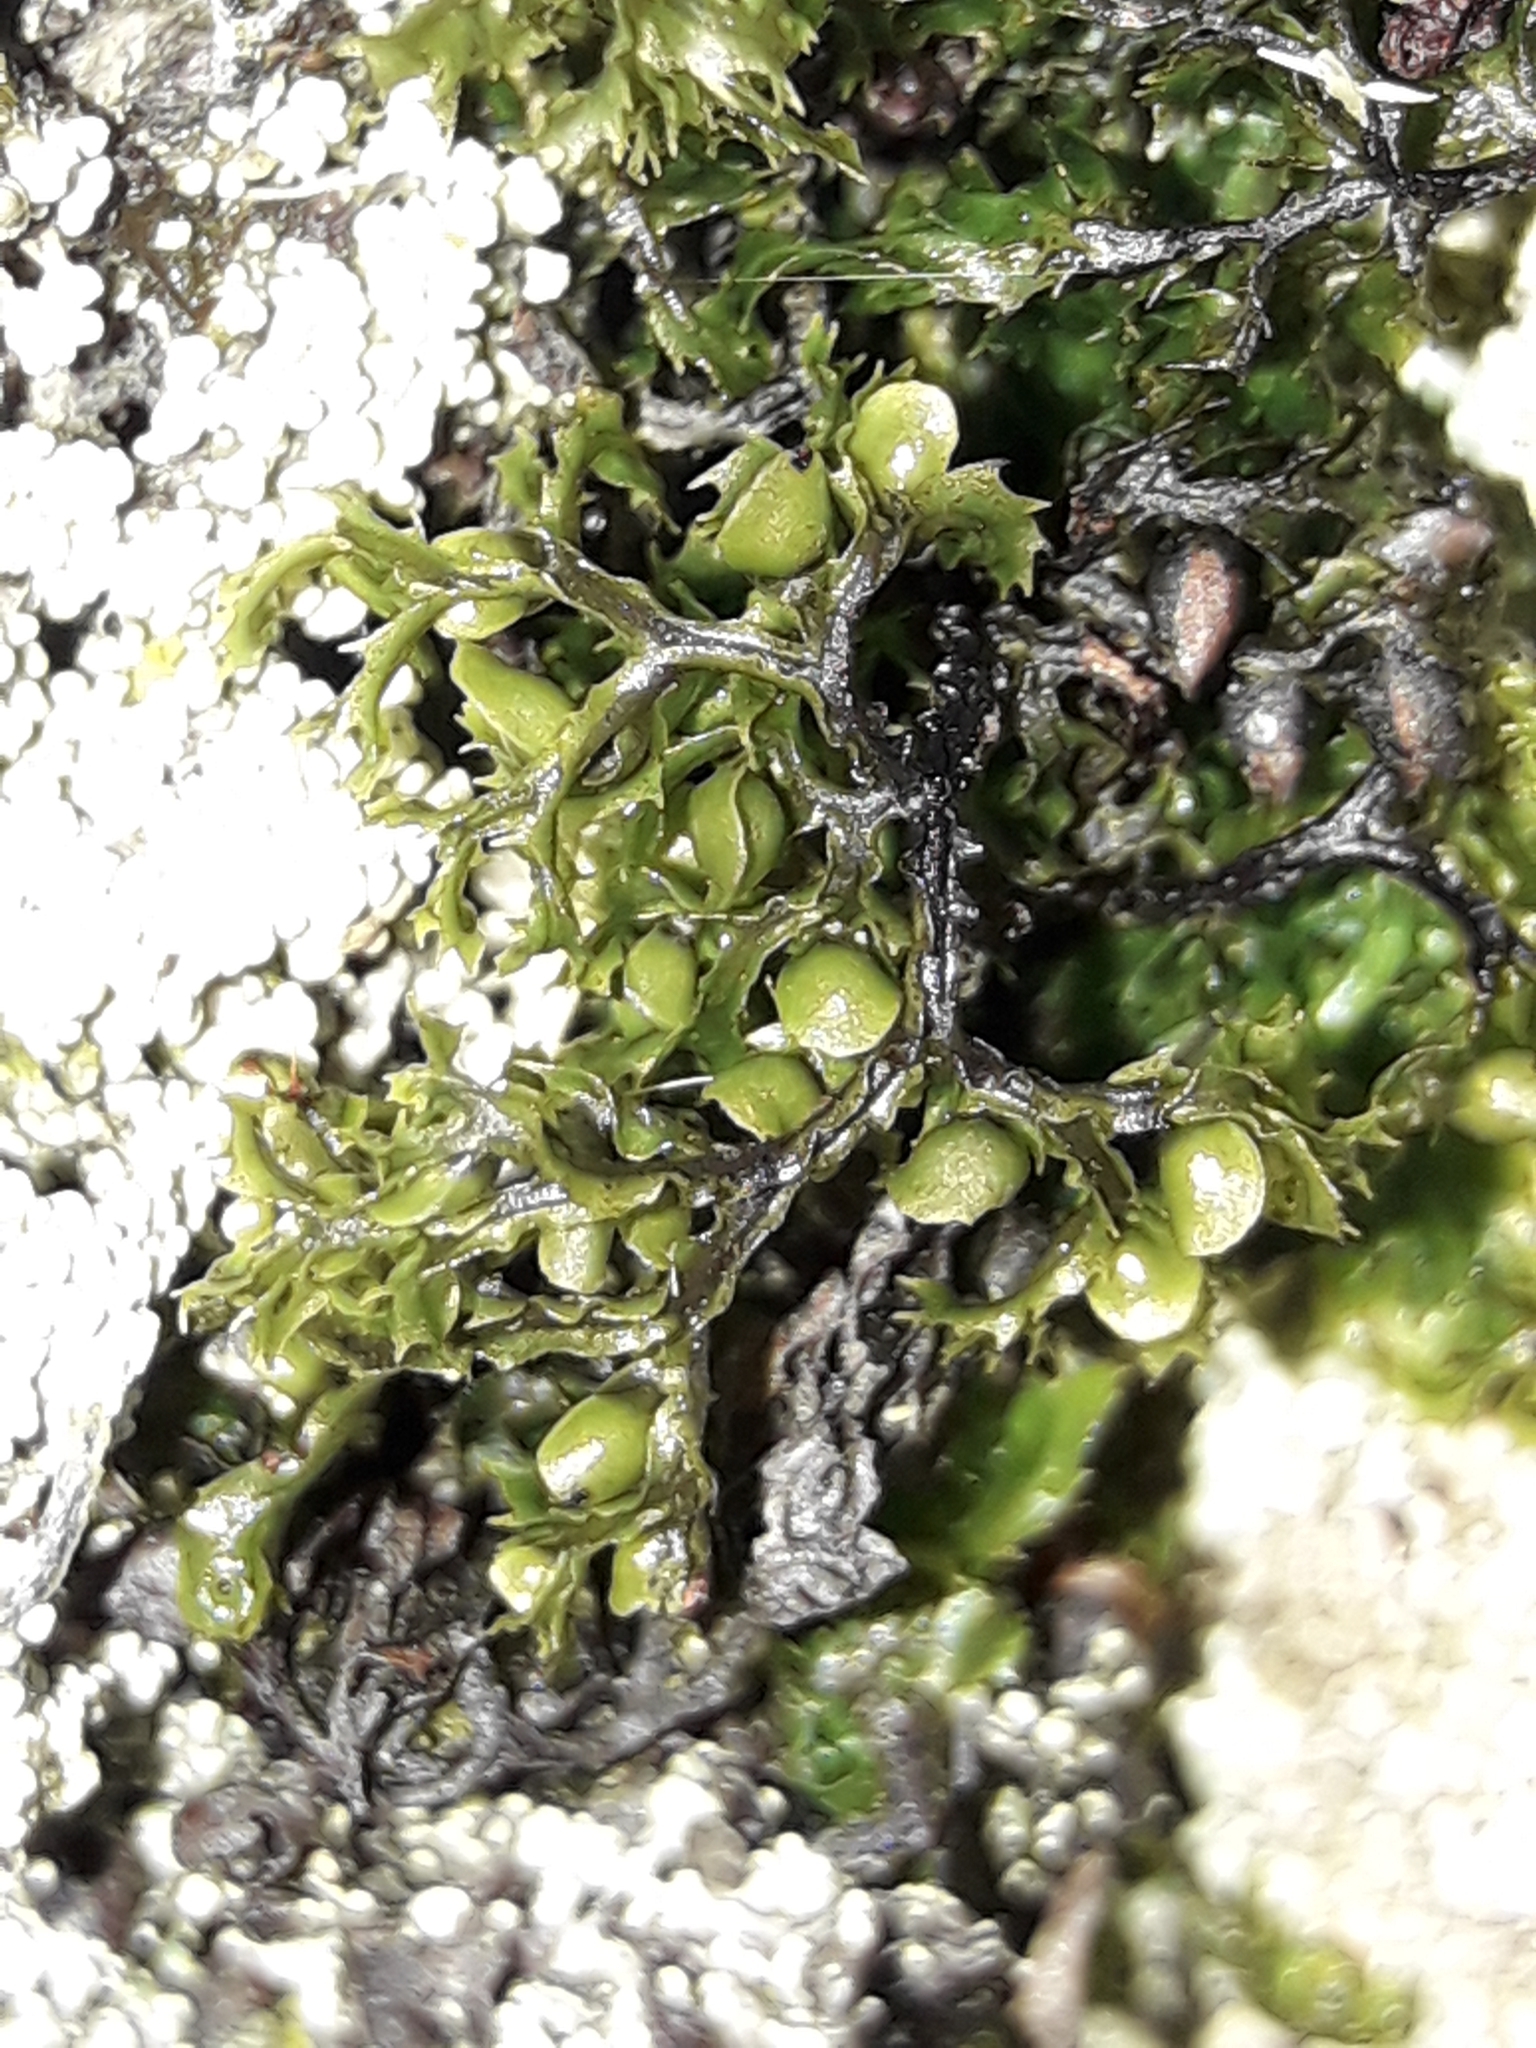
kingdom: Plantae
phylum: Tracheophyta
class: Polypodiopsida
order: Hymenophyllales
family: Hymenophyllaceae
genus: Hymenophyllum
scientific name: Hymenophyllum multifidum
